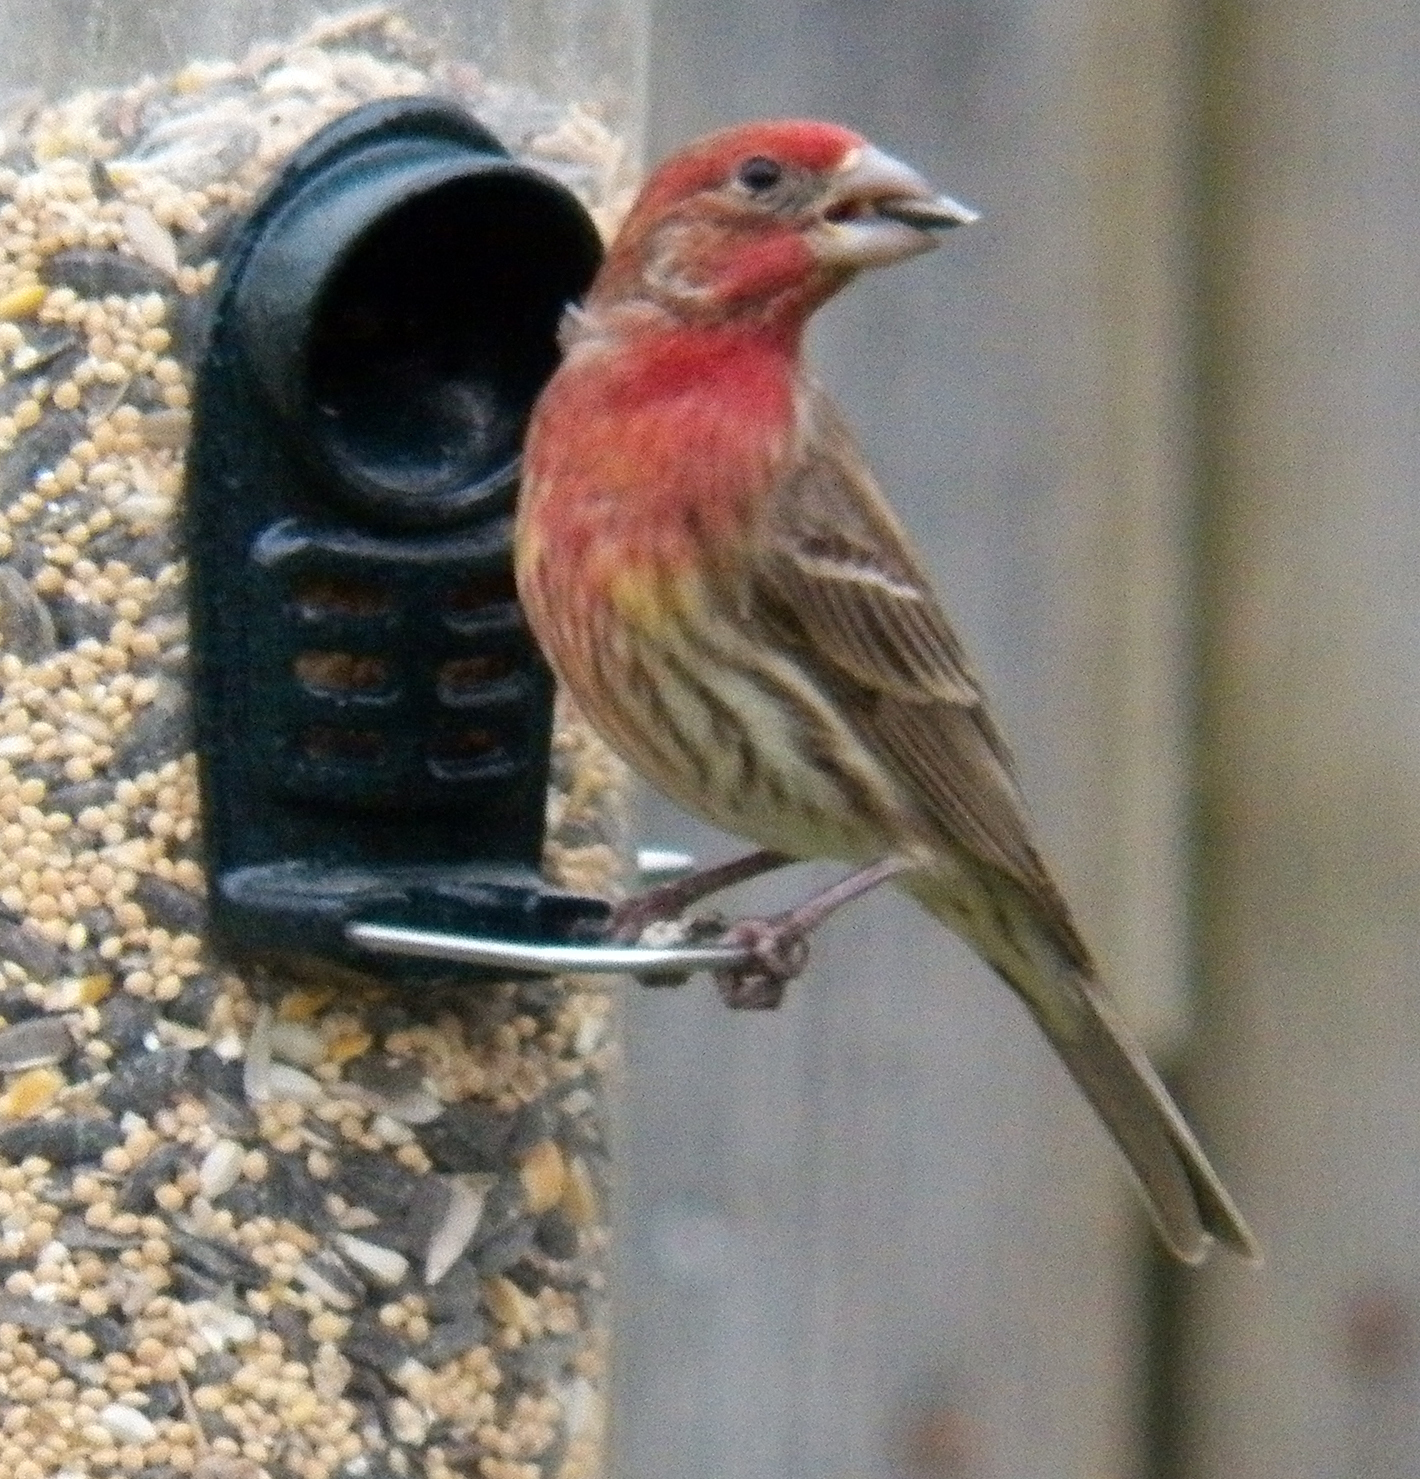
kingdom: Animalia
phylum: Chordata
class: Aves
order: Passeriformes
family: Fringillidae
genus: Haemorhous
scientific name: Haemorhous mexicanus
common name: House finch
